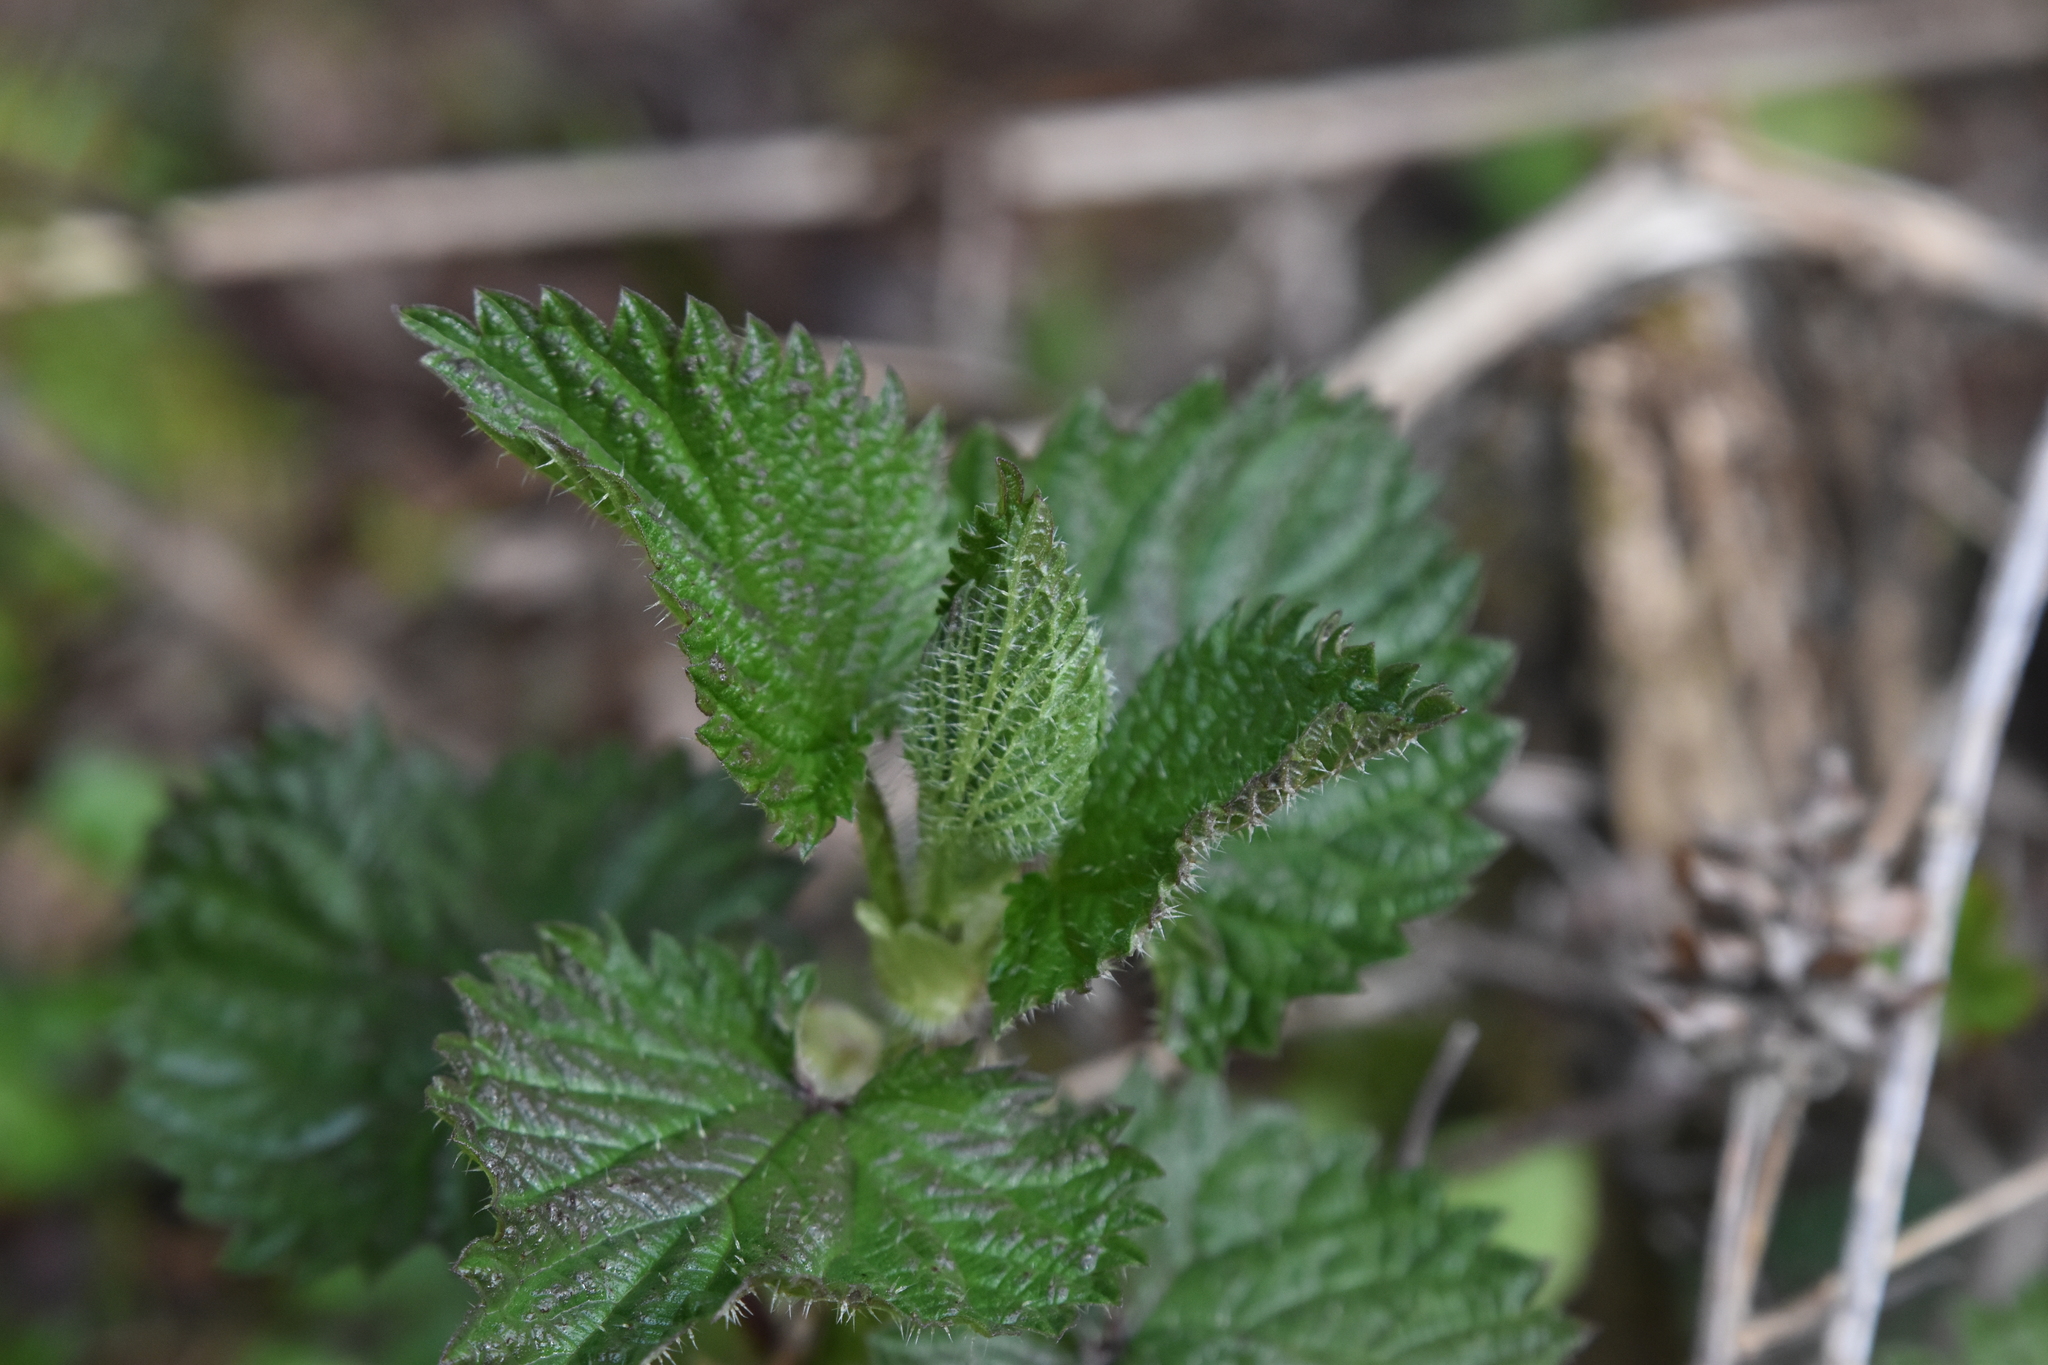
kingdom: Plantae
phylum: Tracheophyta
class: Magnoliopsida
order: Rosales
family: Urticaceae
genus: Urtica
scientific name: Urtica dioica
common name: Common nettle
